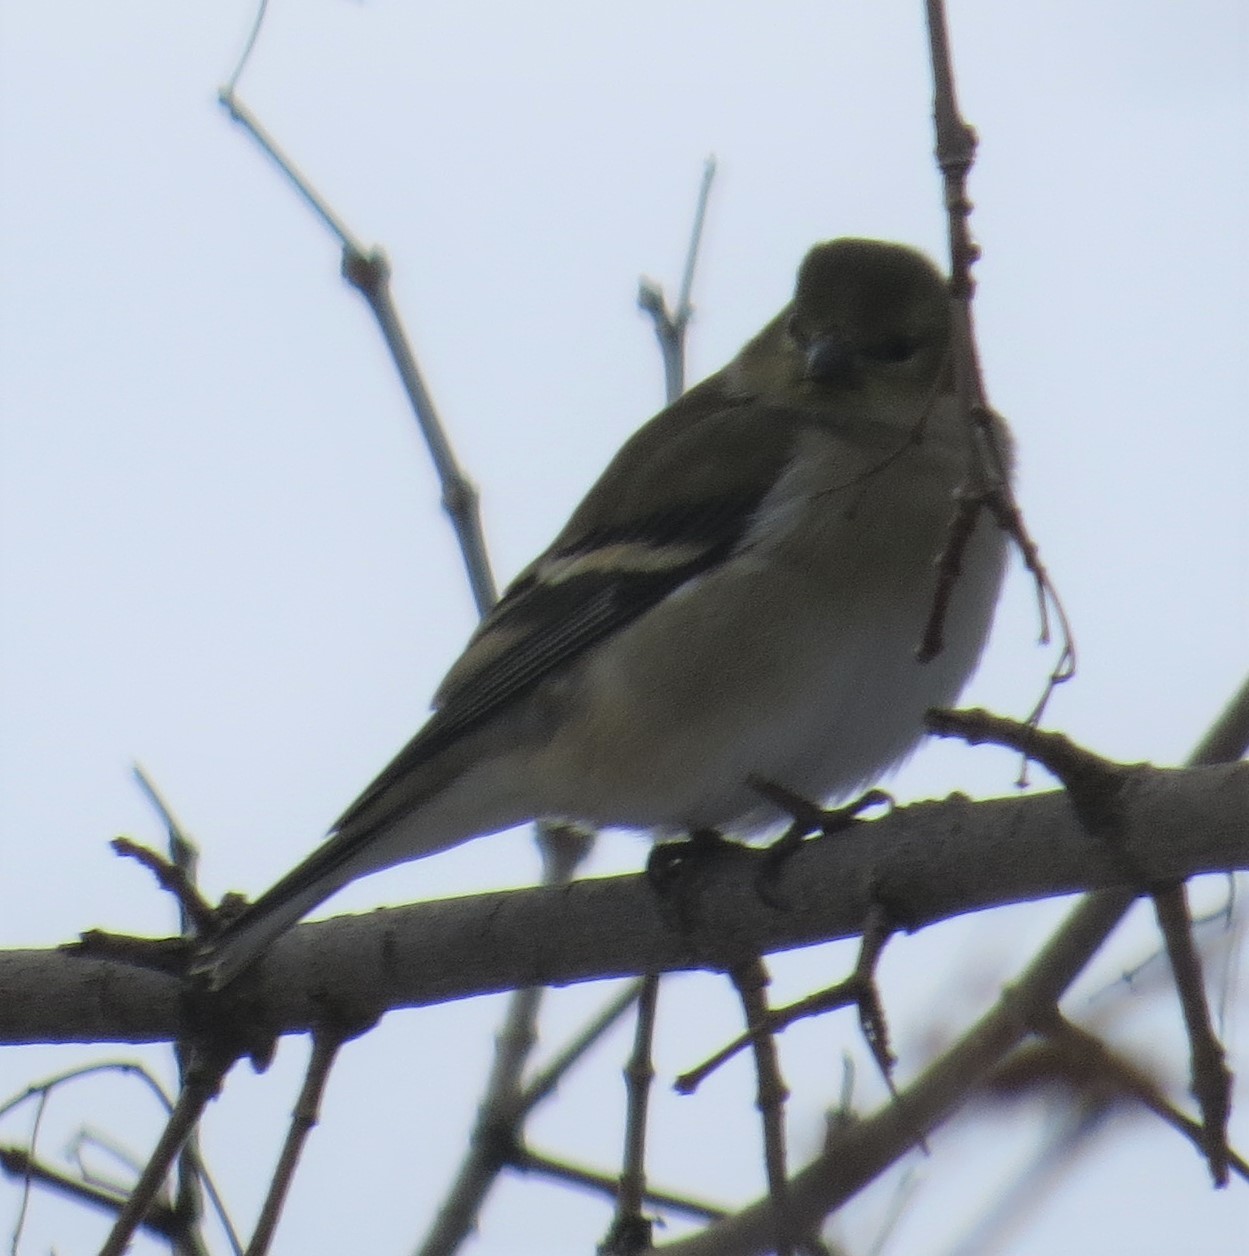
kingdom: Animalia
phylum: Chordata
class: Aves
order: Passeriformes
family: Fringillidae
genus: Spinus
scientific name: Spinus tristis
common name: American goldfinch
